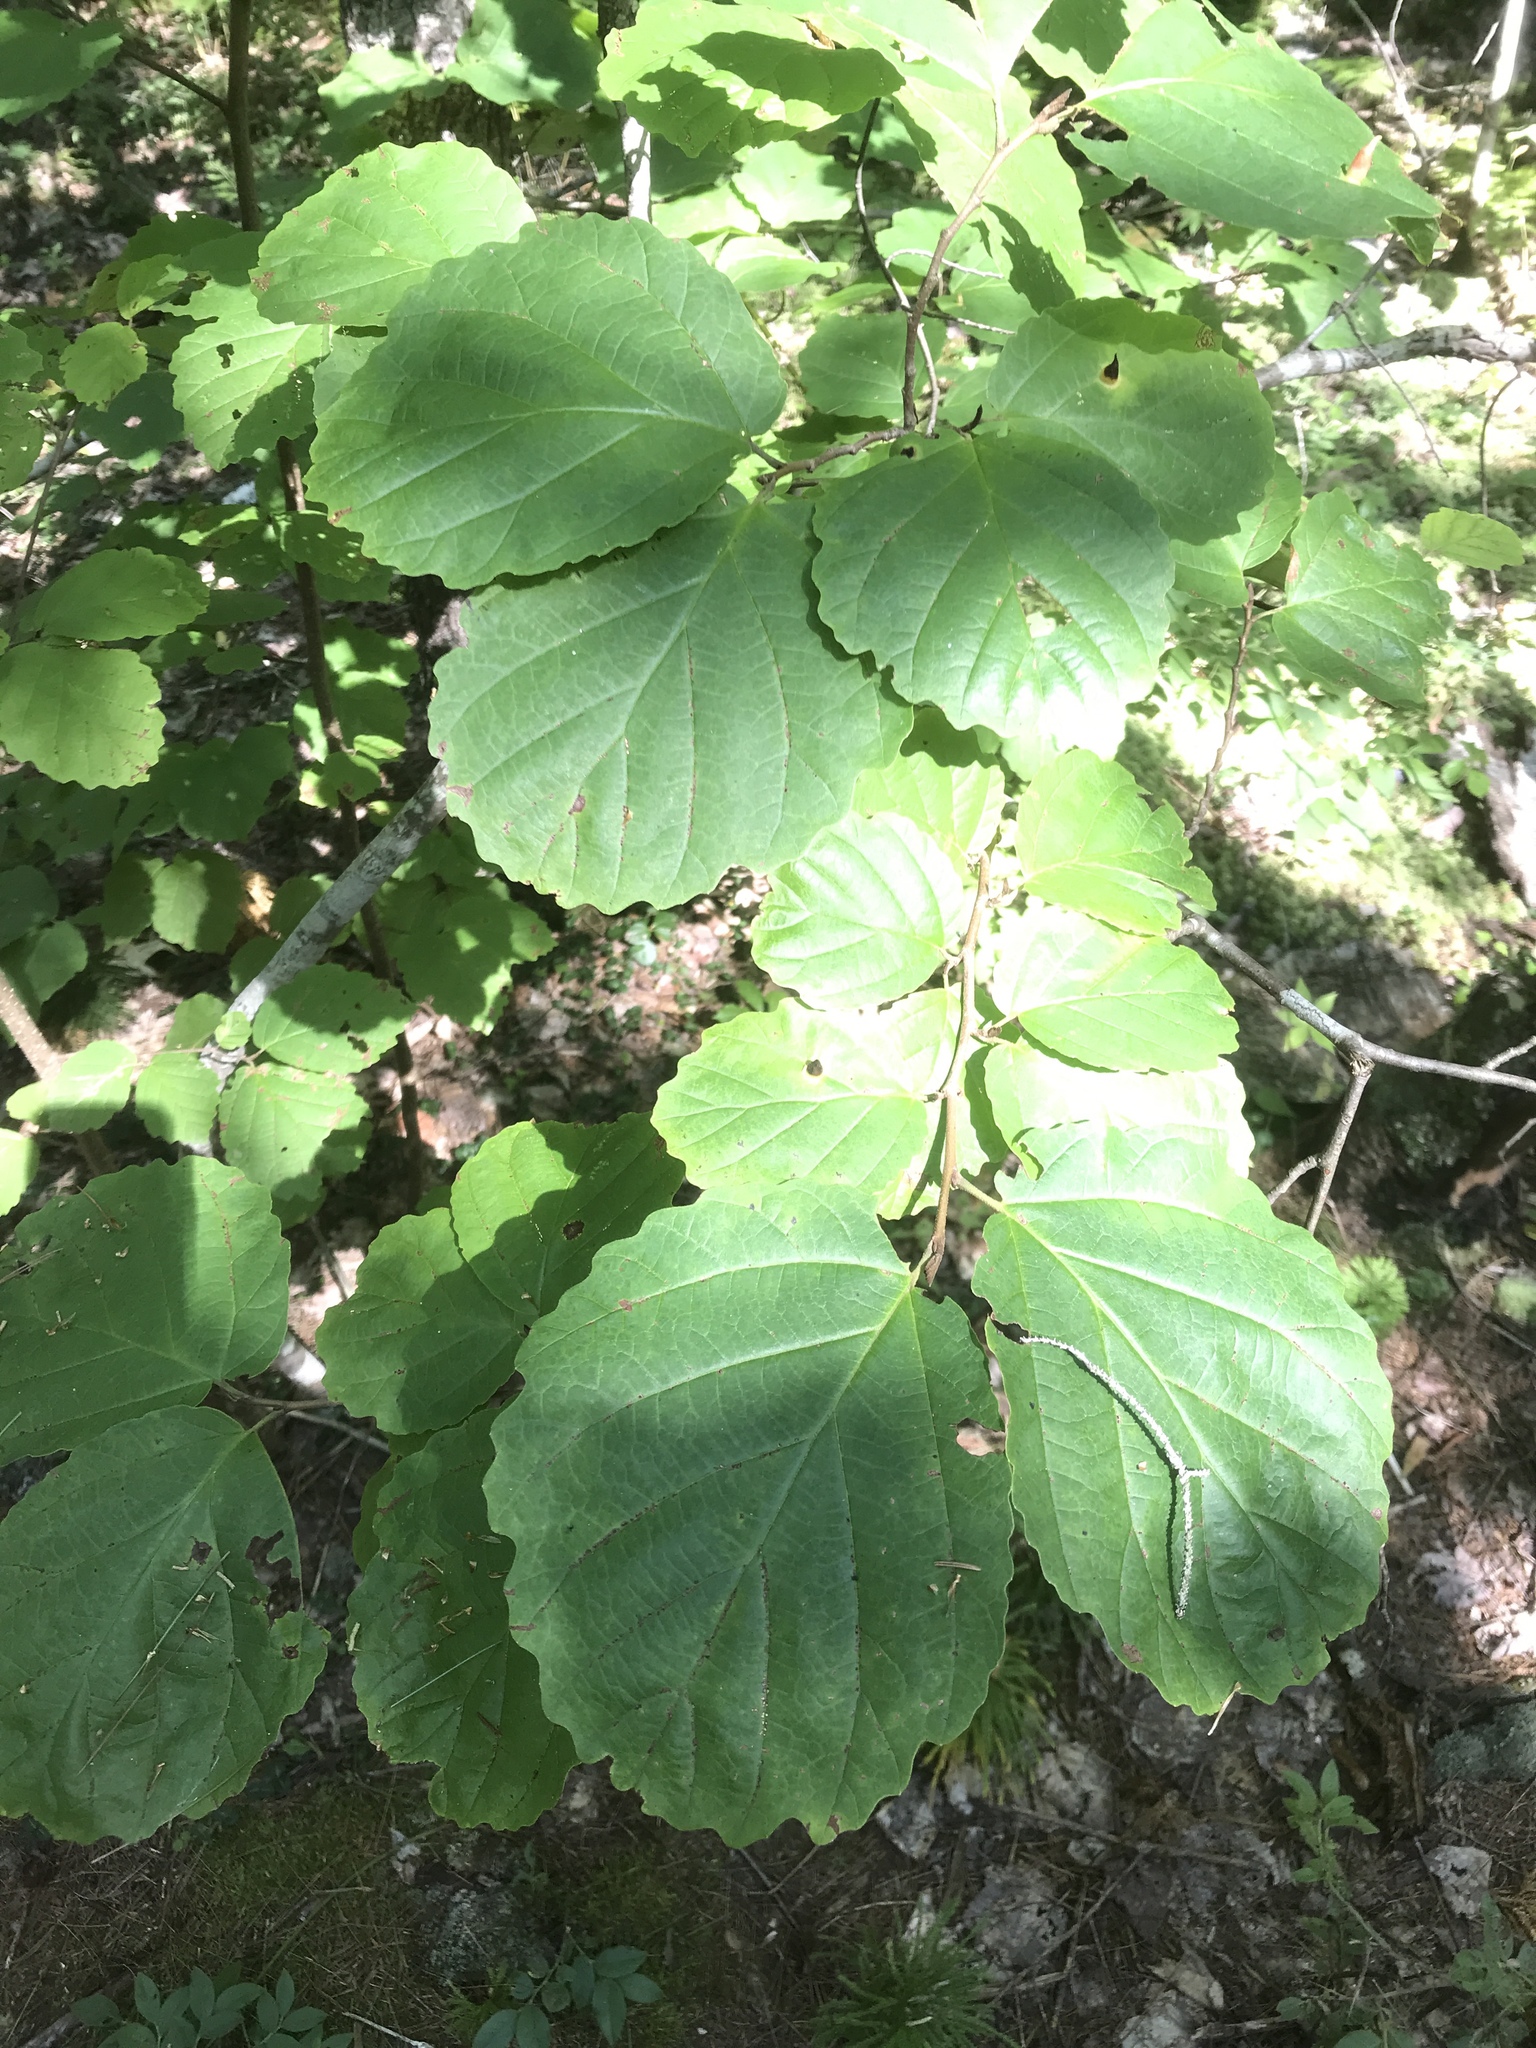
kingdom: Plantae
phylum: Tracheophyta
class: Magnoliopsida
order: Saxifragales
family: Hamamelidaceae
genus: Hamamelis
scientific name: Hamamelis virginiana
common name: Witch-hazel
